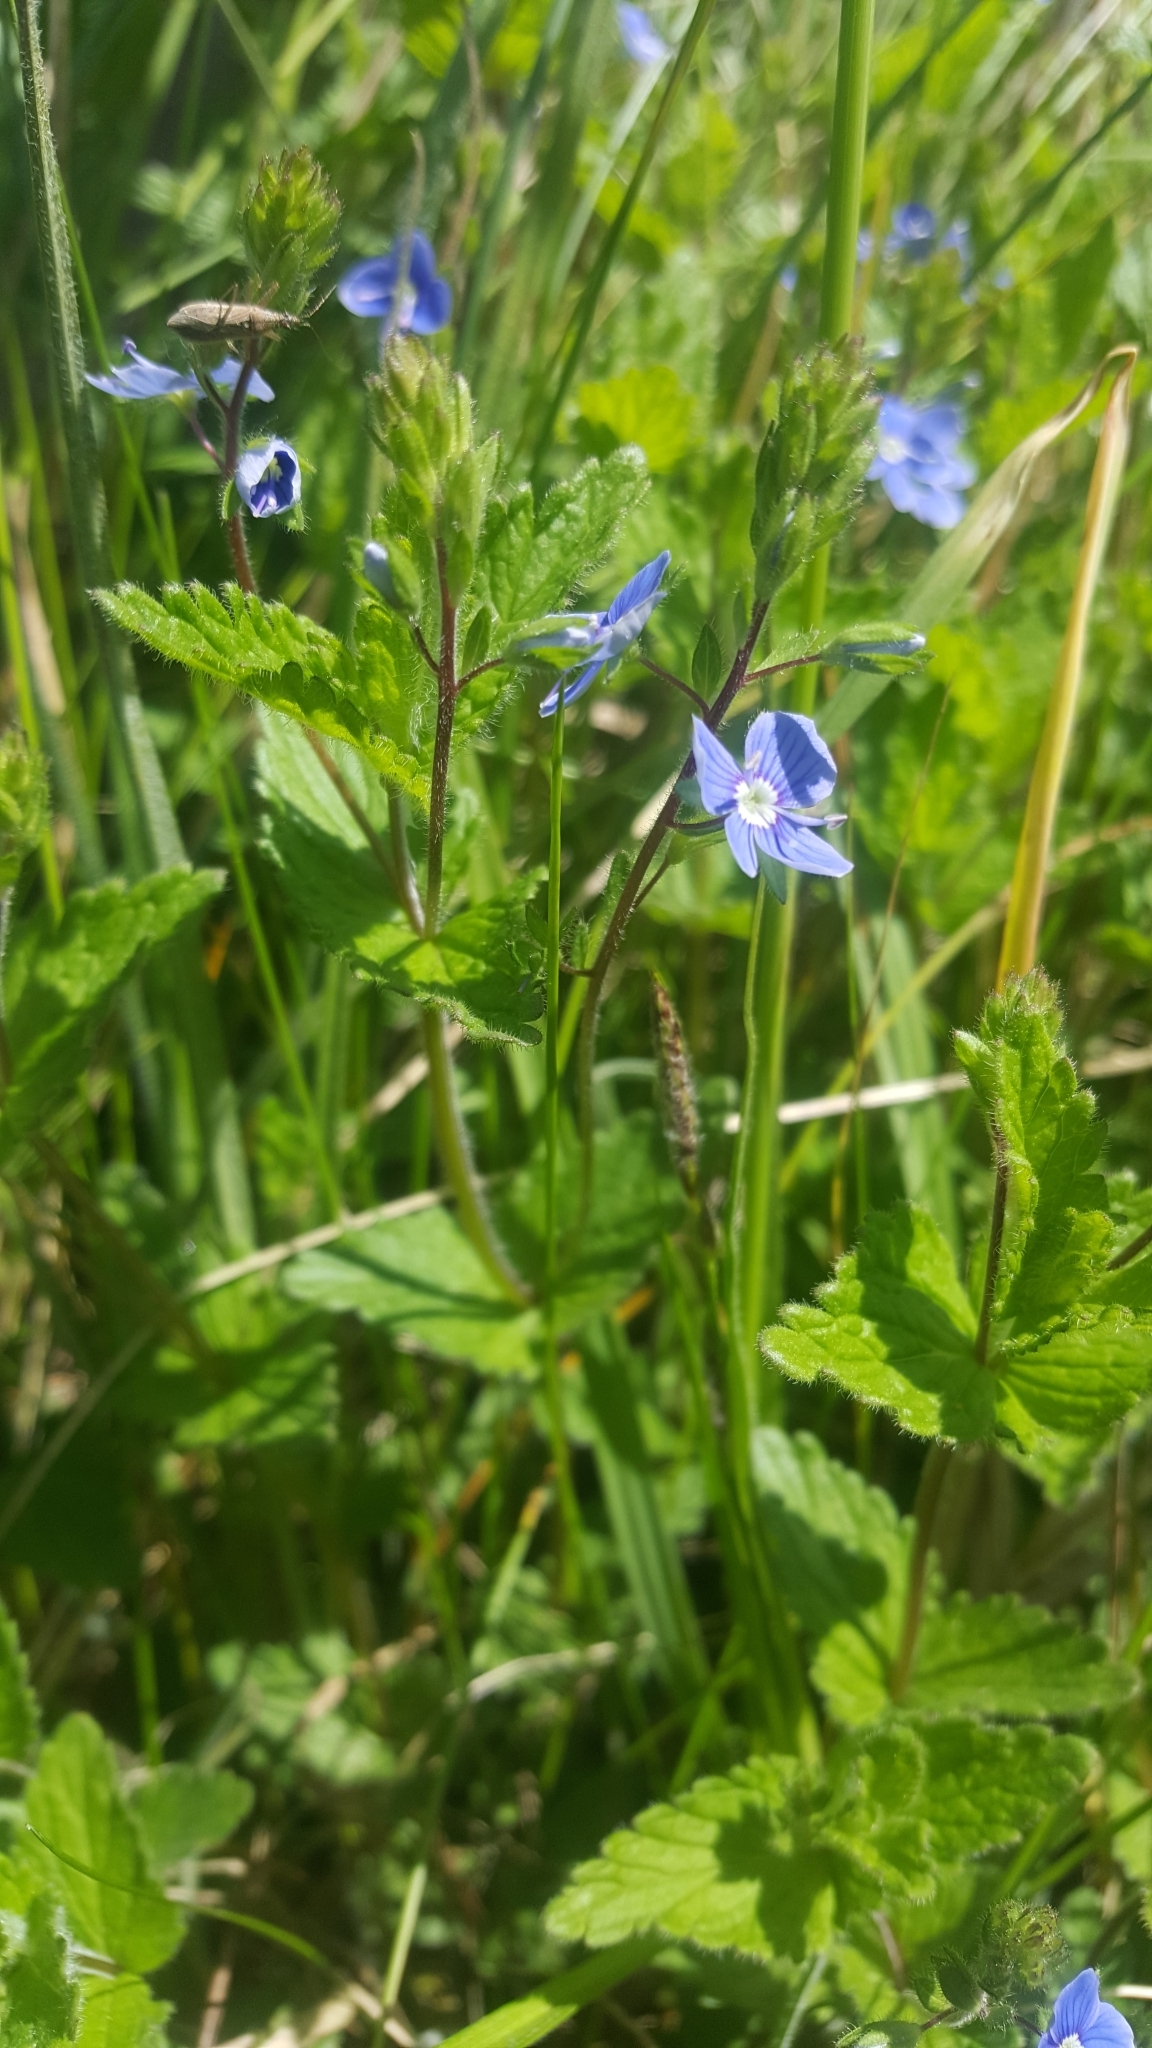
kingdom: Plantae
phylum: Tracheophyta
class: Magnoliopsida
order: Lamiales
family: Plantaginaceae
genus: Veronica
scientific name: Veronica chamaedrys
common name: Germander speedwell
